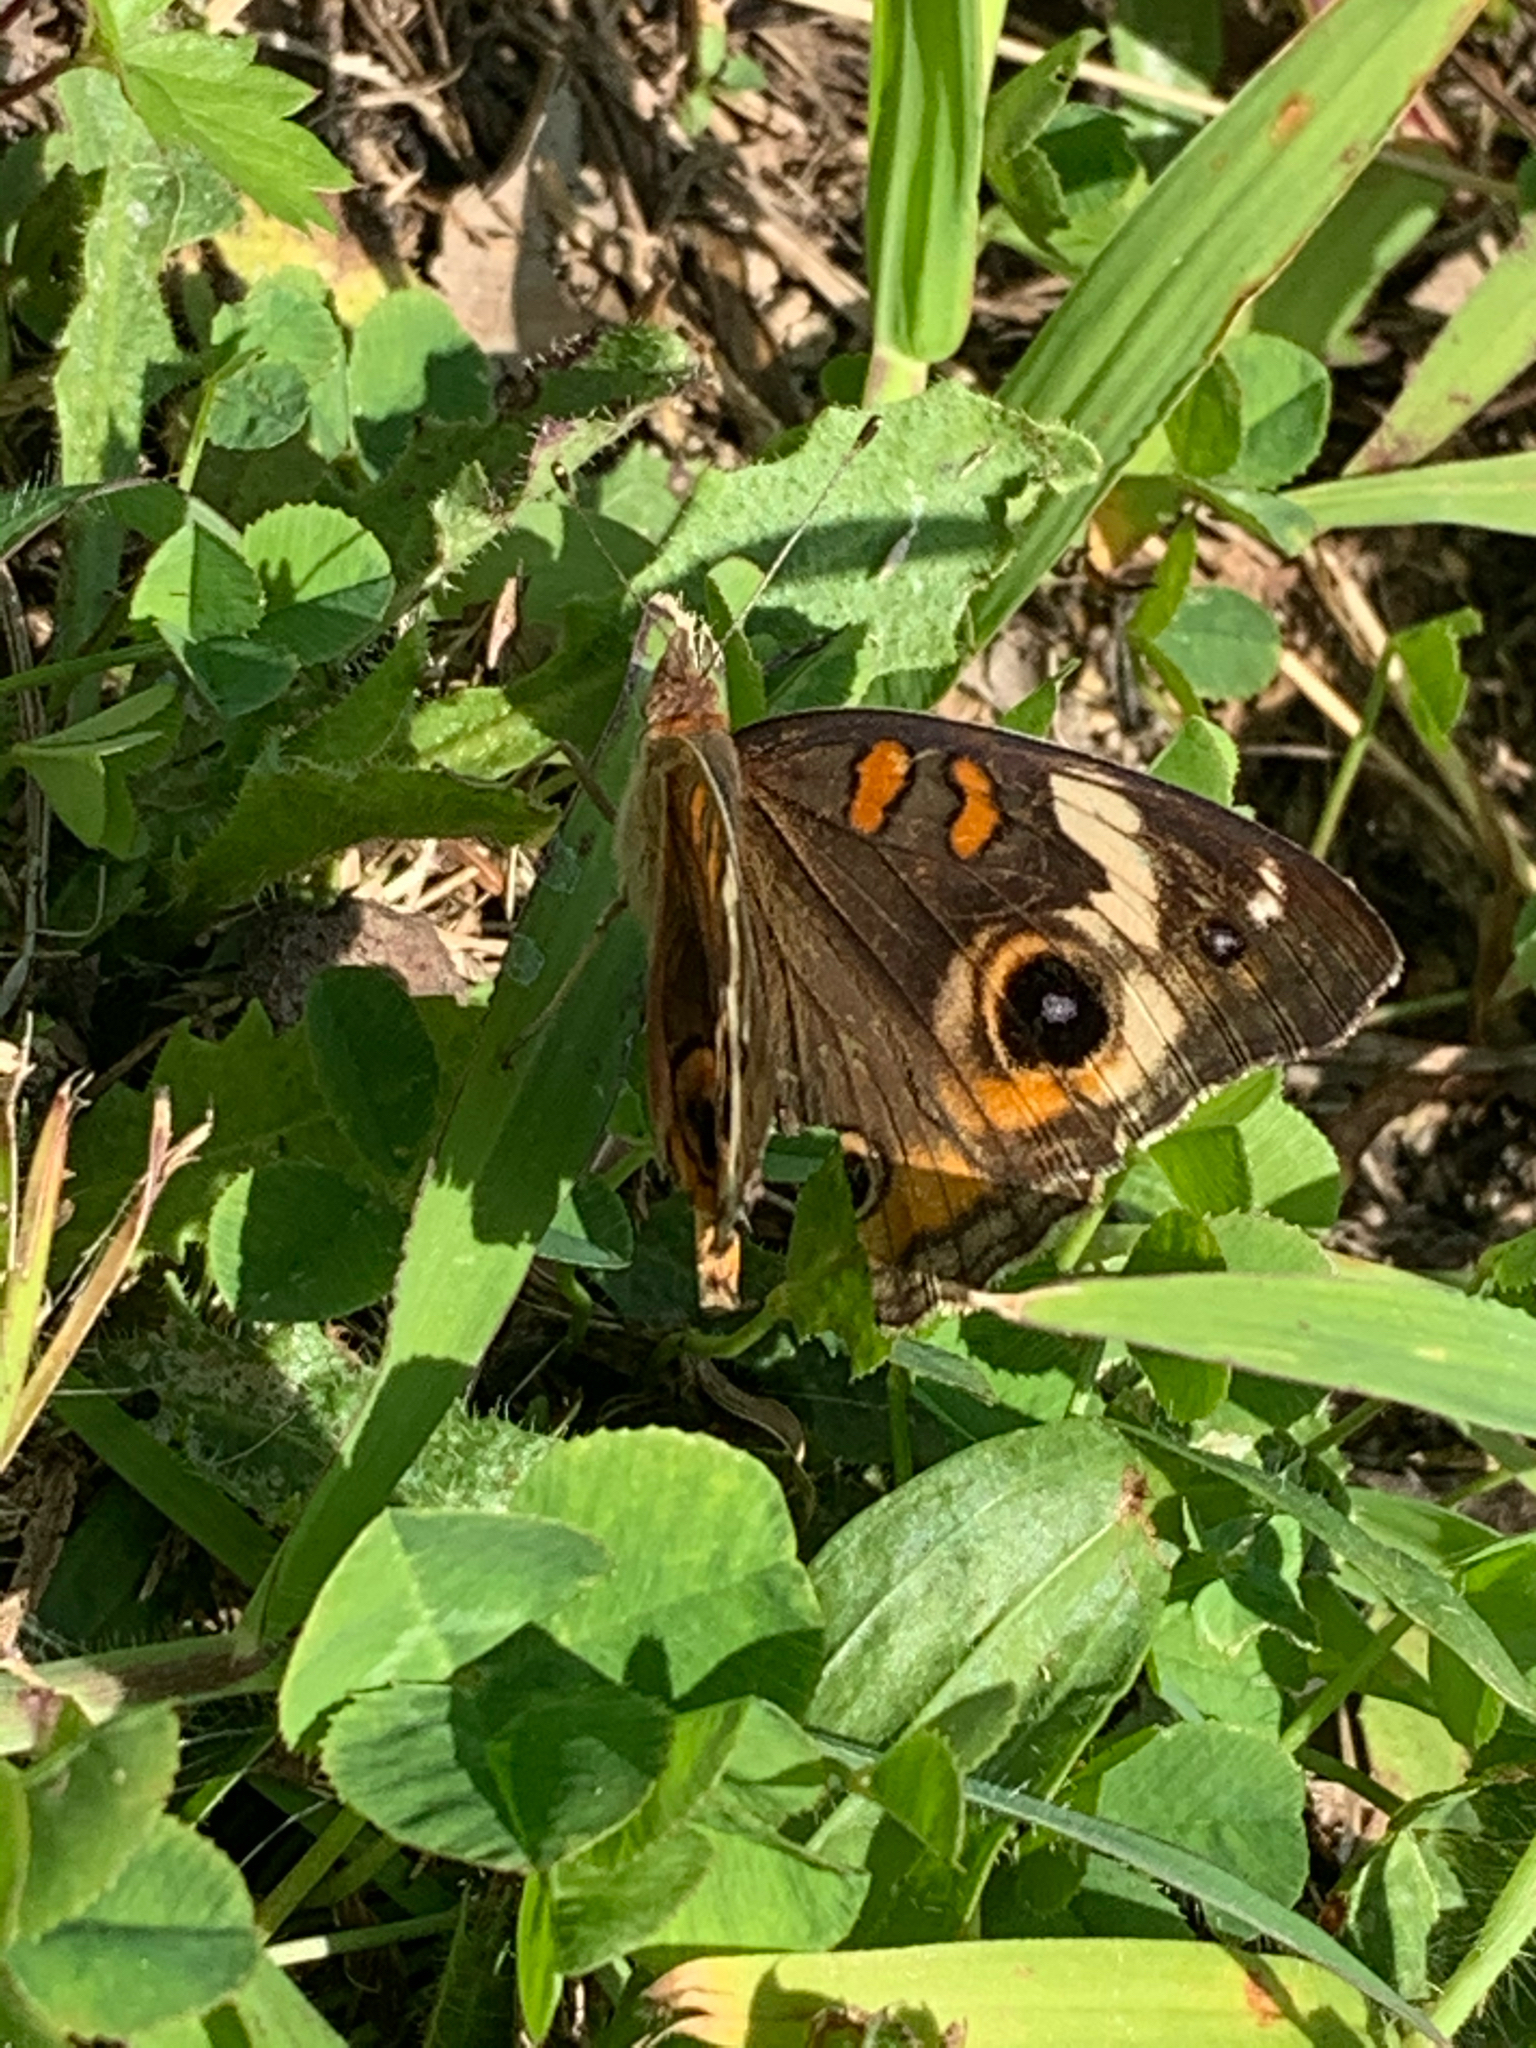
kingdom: Animalia
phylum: Arthropoda
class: Insecta
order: Lepidoptera
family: Nymphalidae
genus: Junonia
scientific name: Junonia coenia
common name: Common buckeye
